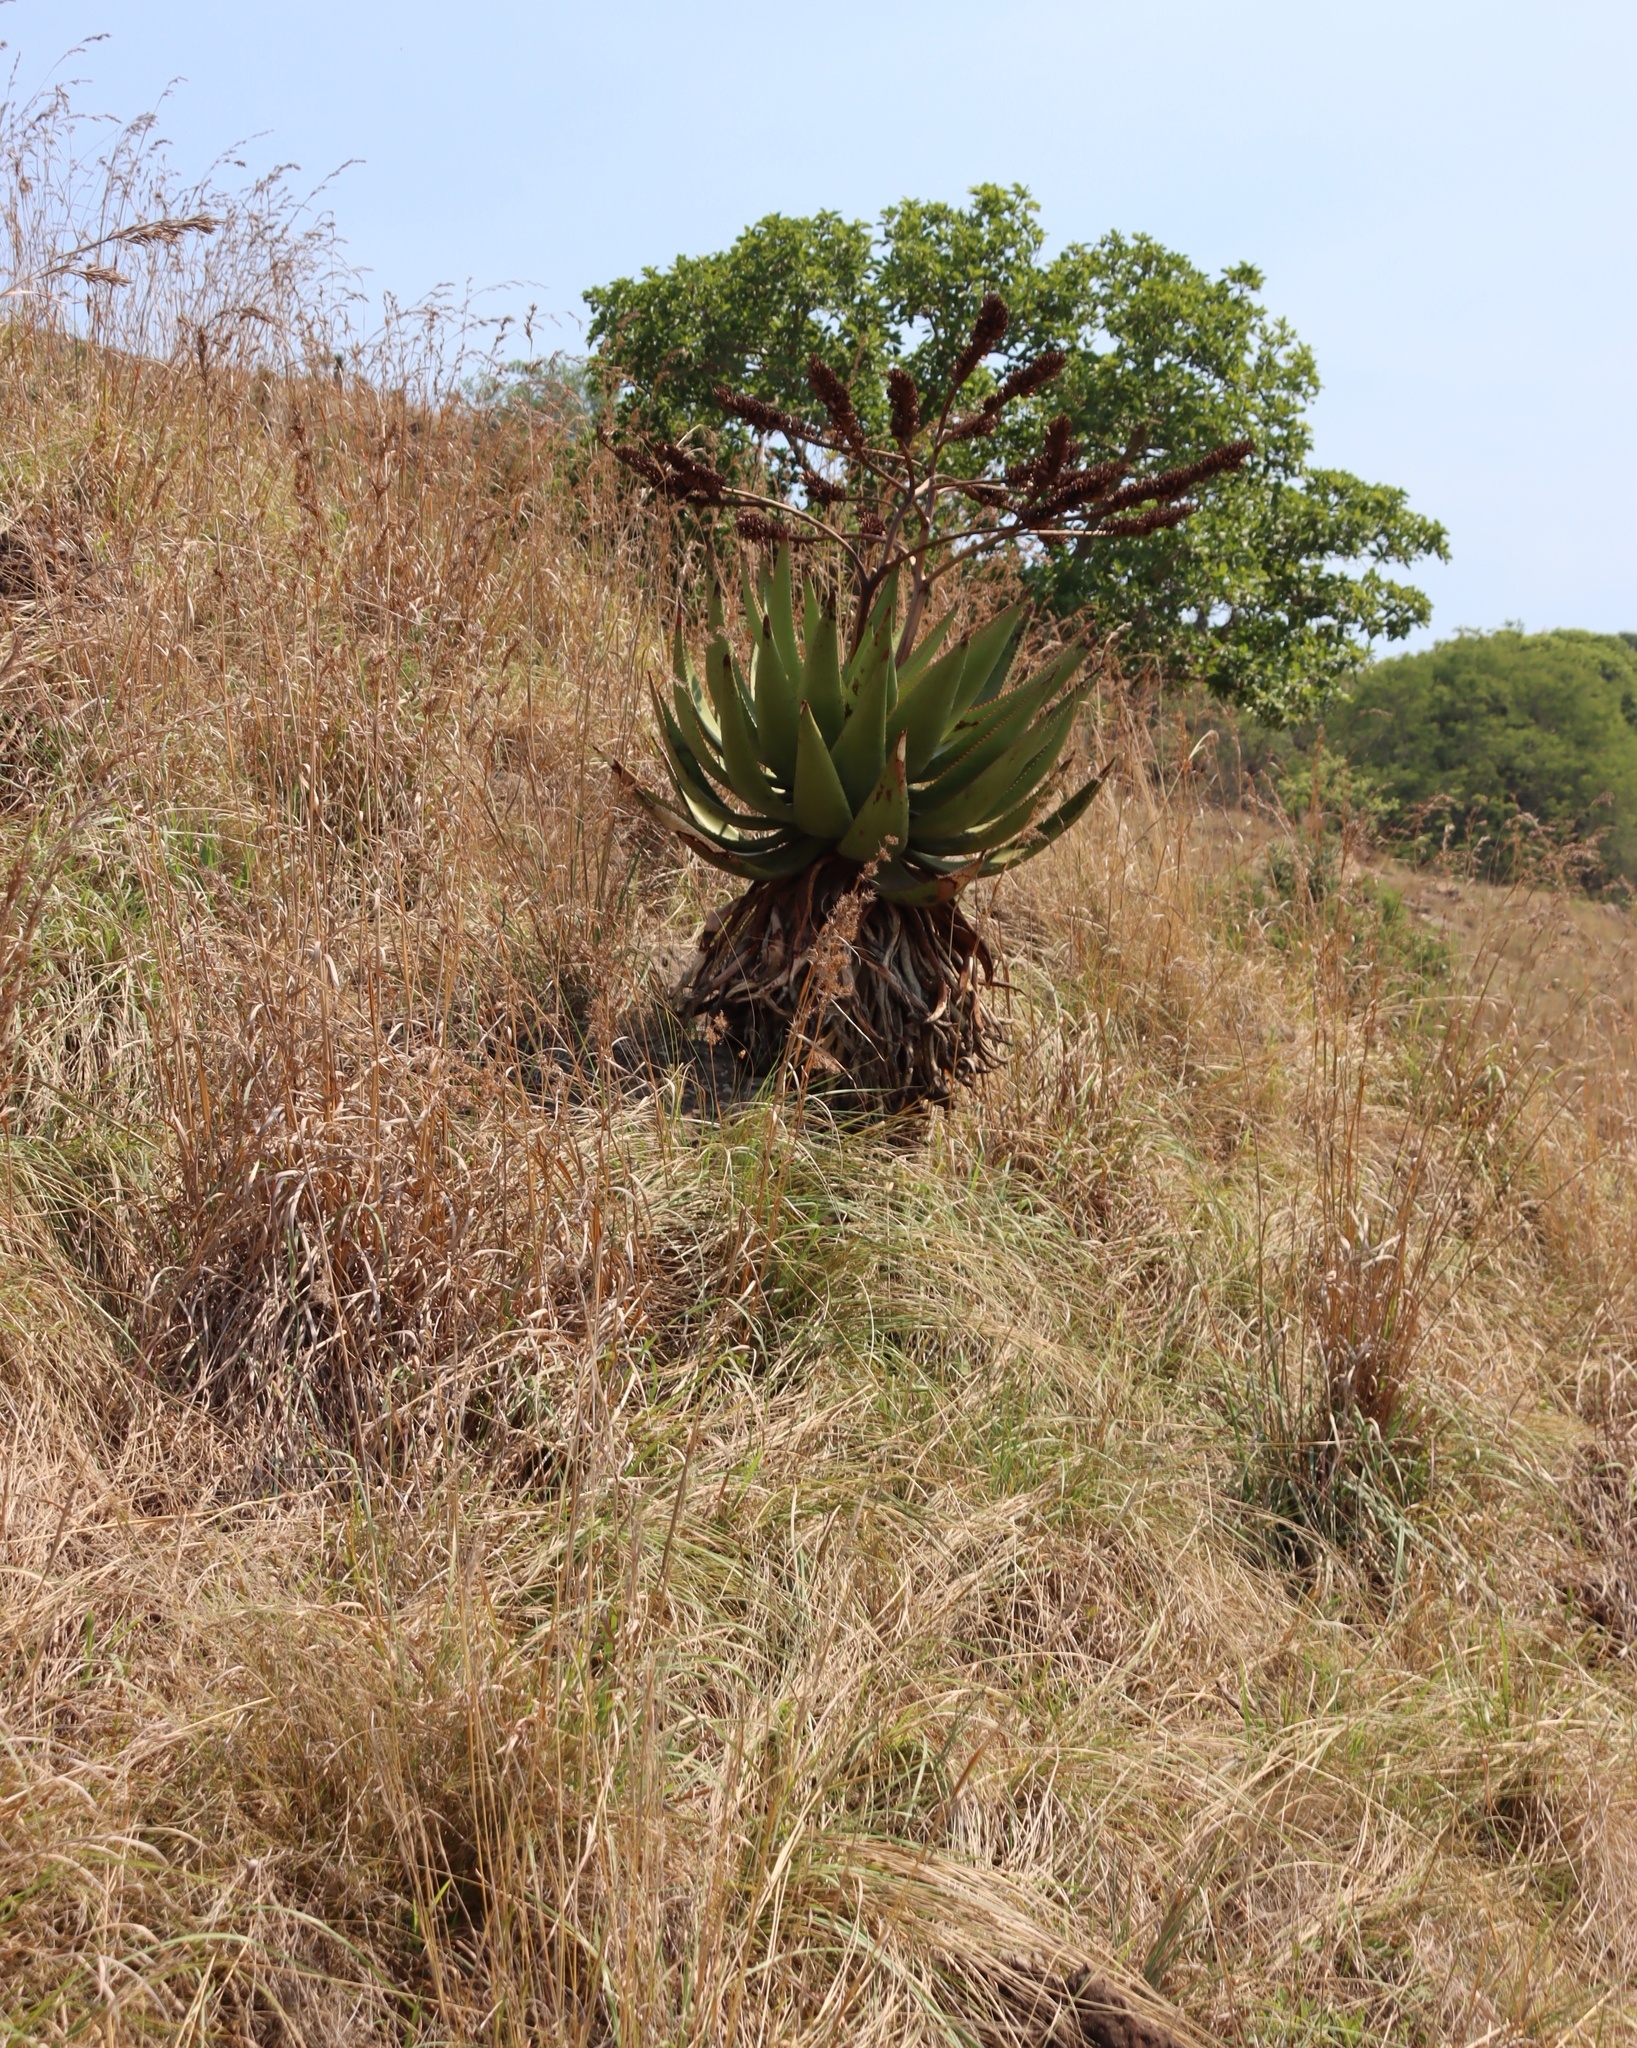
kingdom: Plantae
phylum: Tracheophyta
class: Liliopsida
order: Asparagales
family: Asphodelaceae
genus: Aloe
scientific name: Aloe marlothii
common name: Flat-flowered aloe
